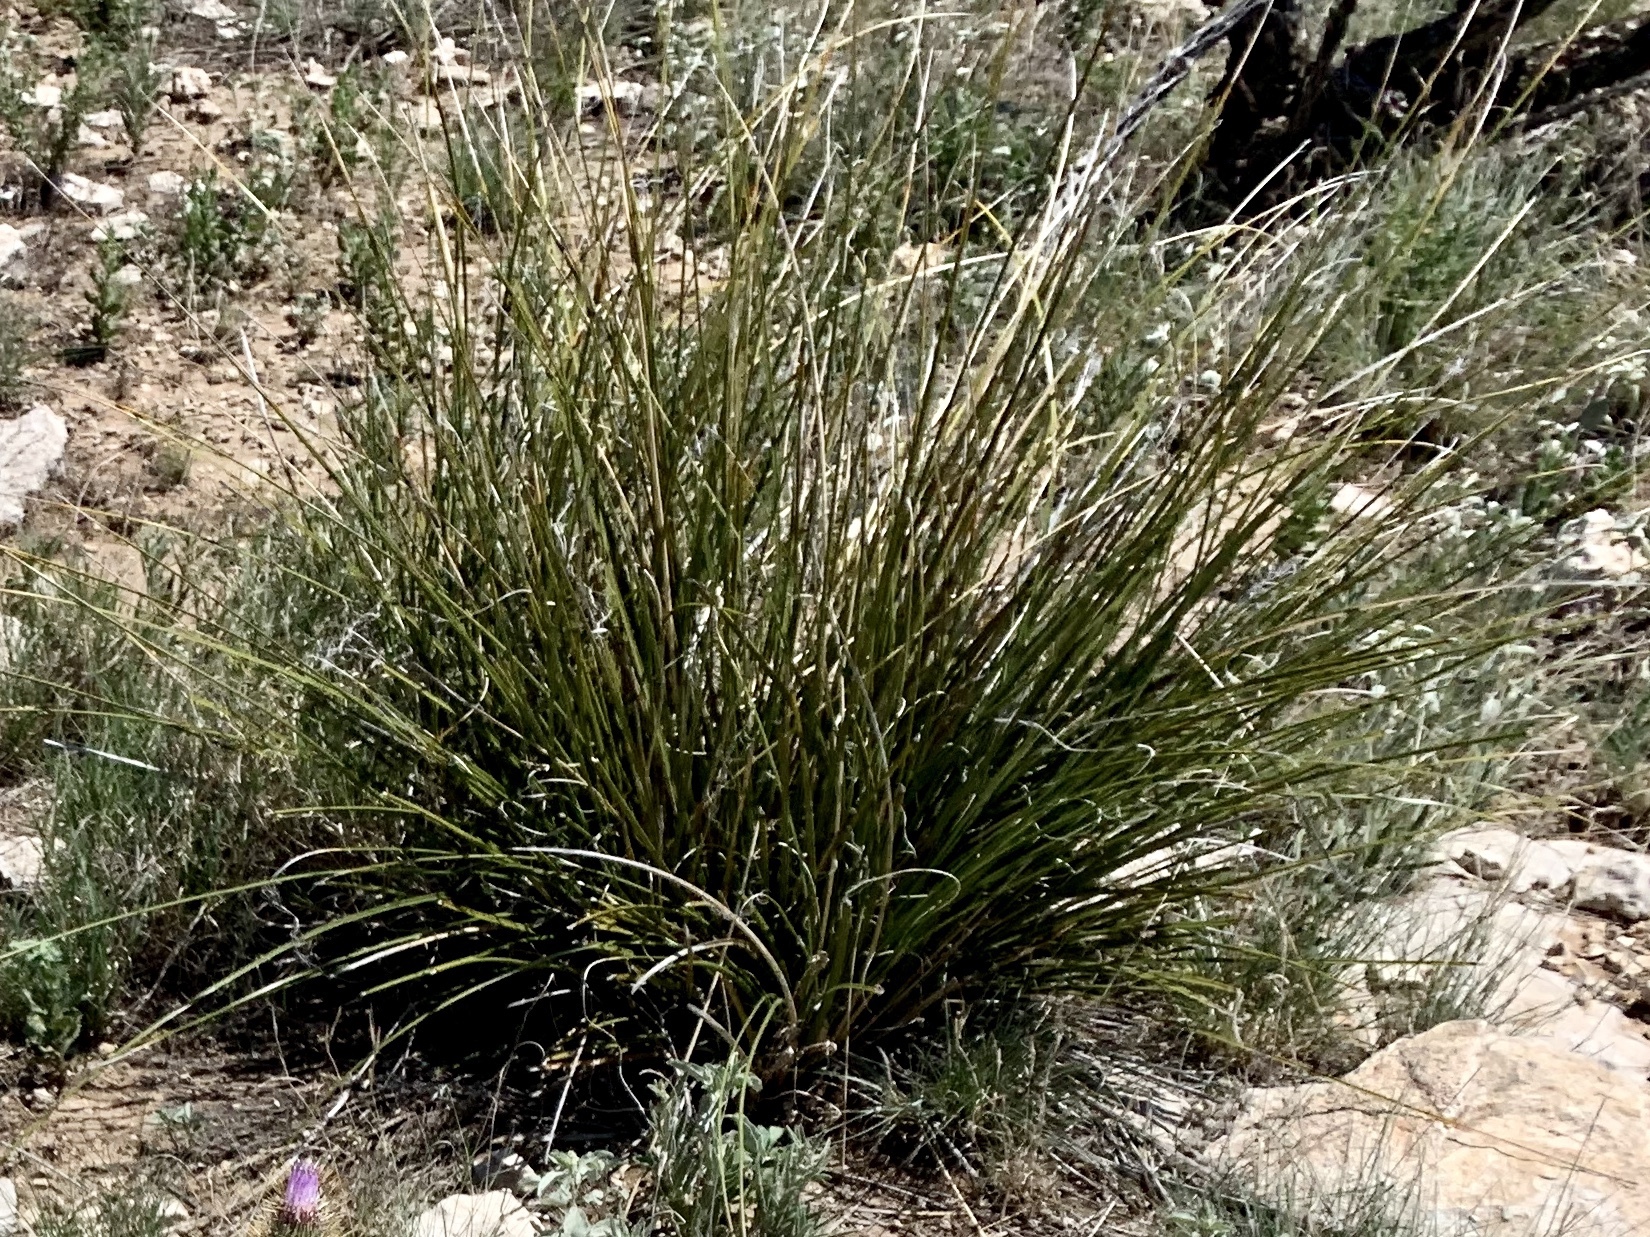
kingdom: Plantae
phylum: Tracheophyta
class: Liliopsida
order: Asparagales
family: Asparagaceae
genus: Nolina
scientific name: Nolina texana
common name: Texas sacahuiste
